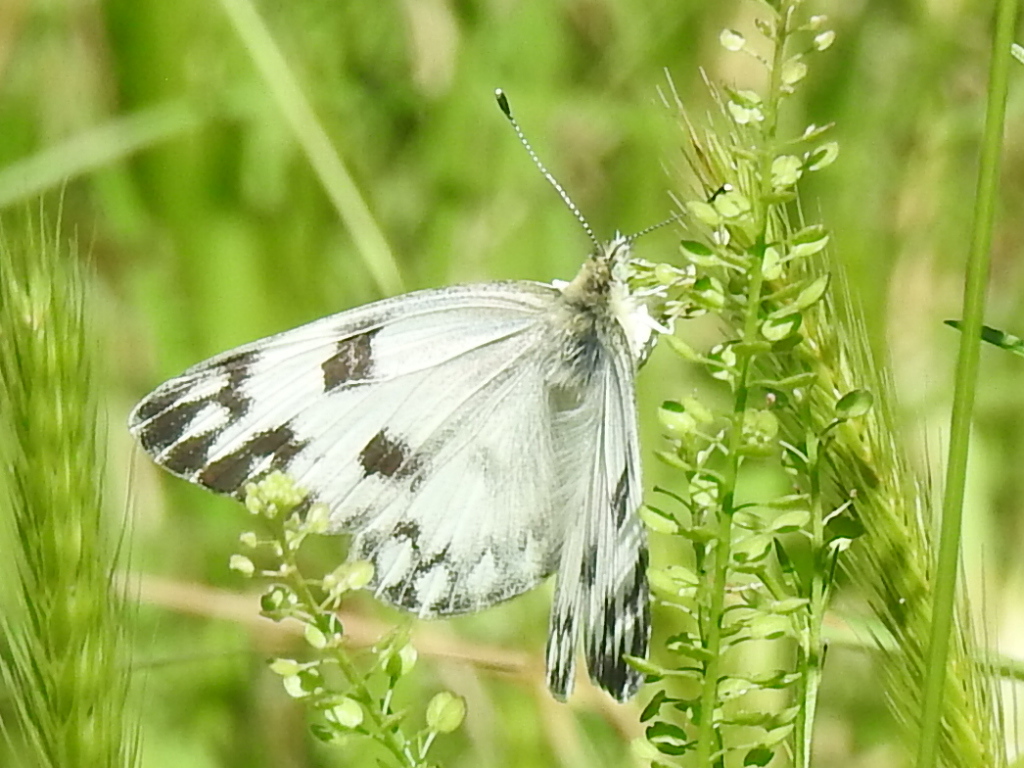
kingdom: Animalia
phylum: Arthropoda
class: Insecta
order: Lepidoptera
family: Pieridae
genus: Pontia
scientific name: Pontia protodice
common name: Checkered white
